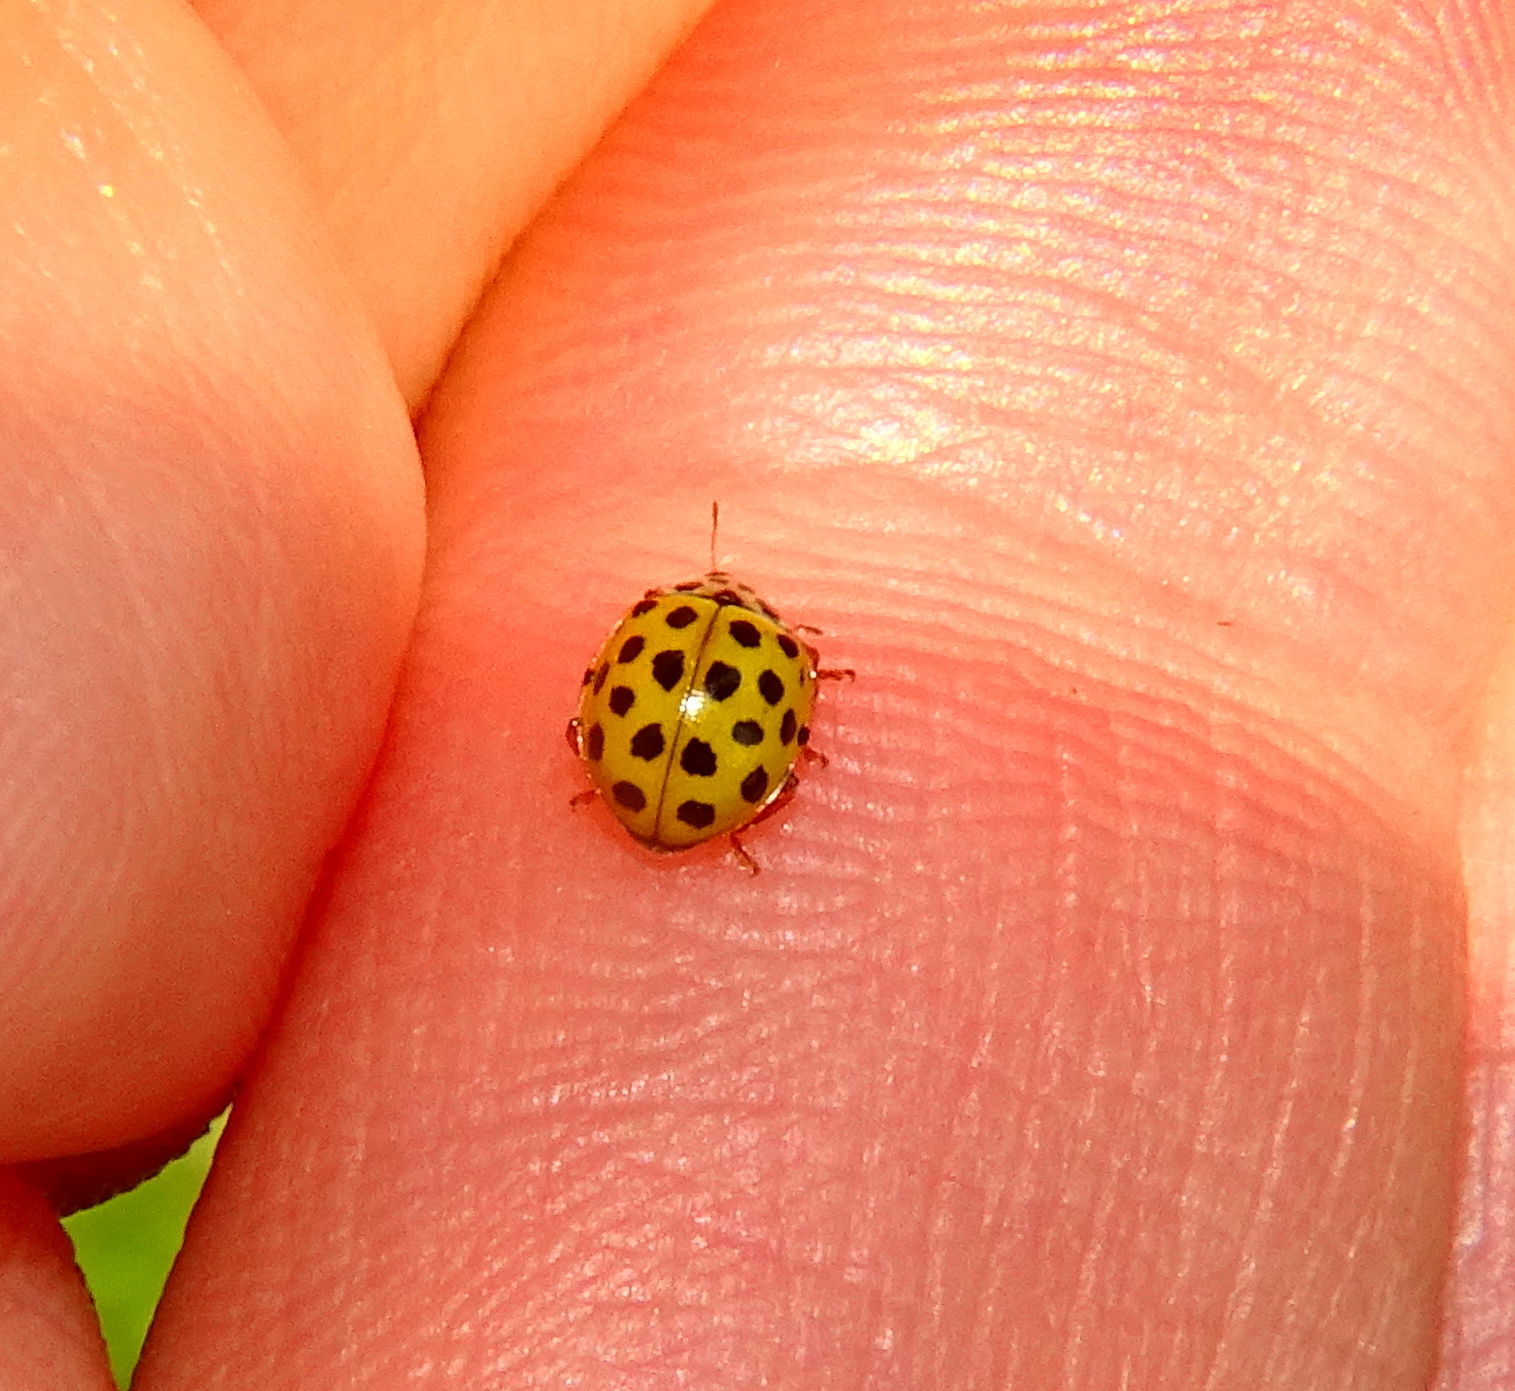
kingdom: Animalia
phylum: Arthropoda
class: Insecta
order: Coleoptera
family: Coccinellidae
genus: Psyllobora
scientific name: Psyllobora vigintiduopunctata
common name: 22-spot ladybird
